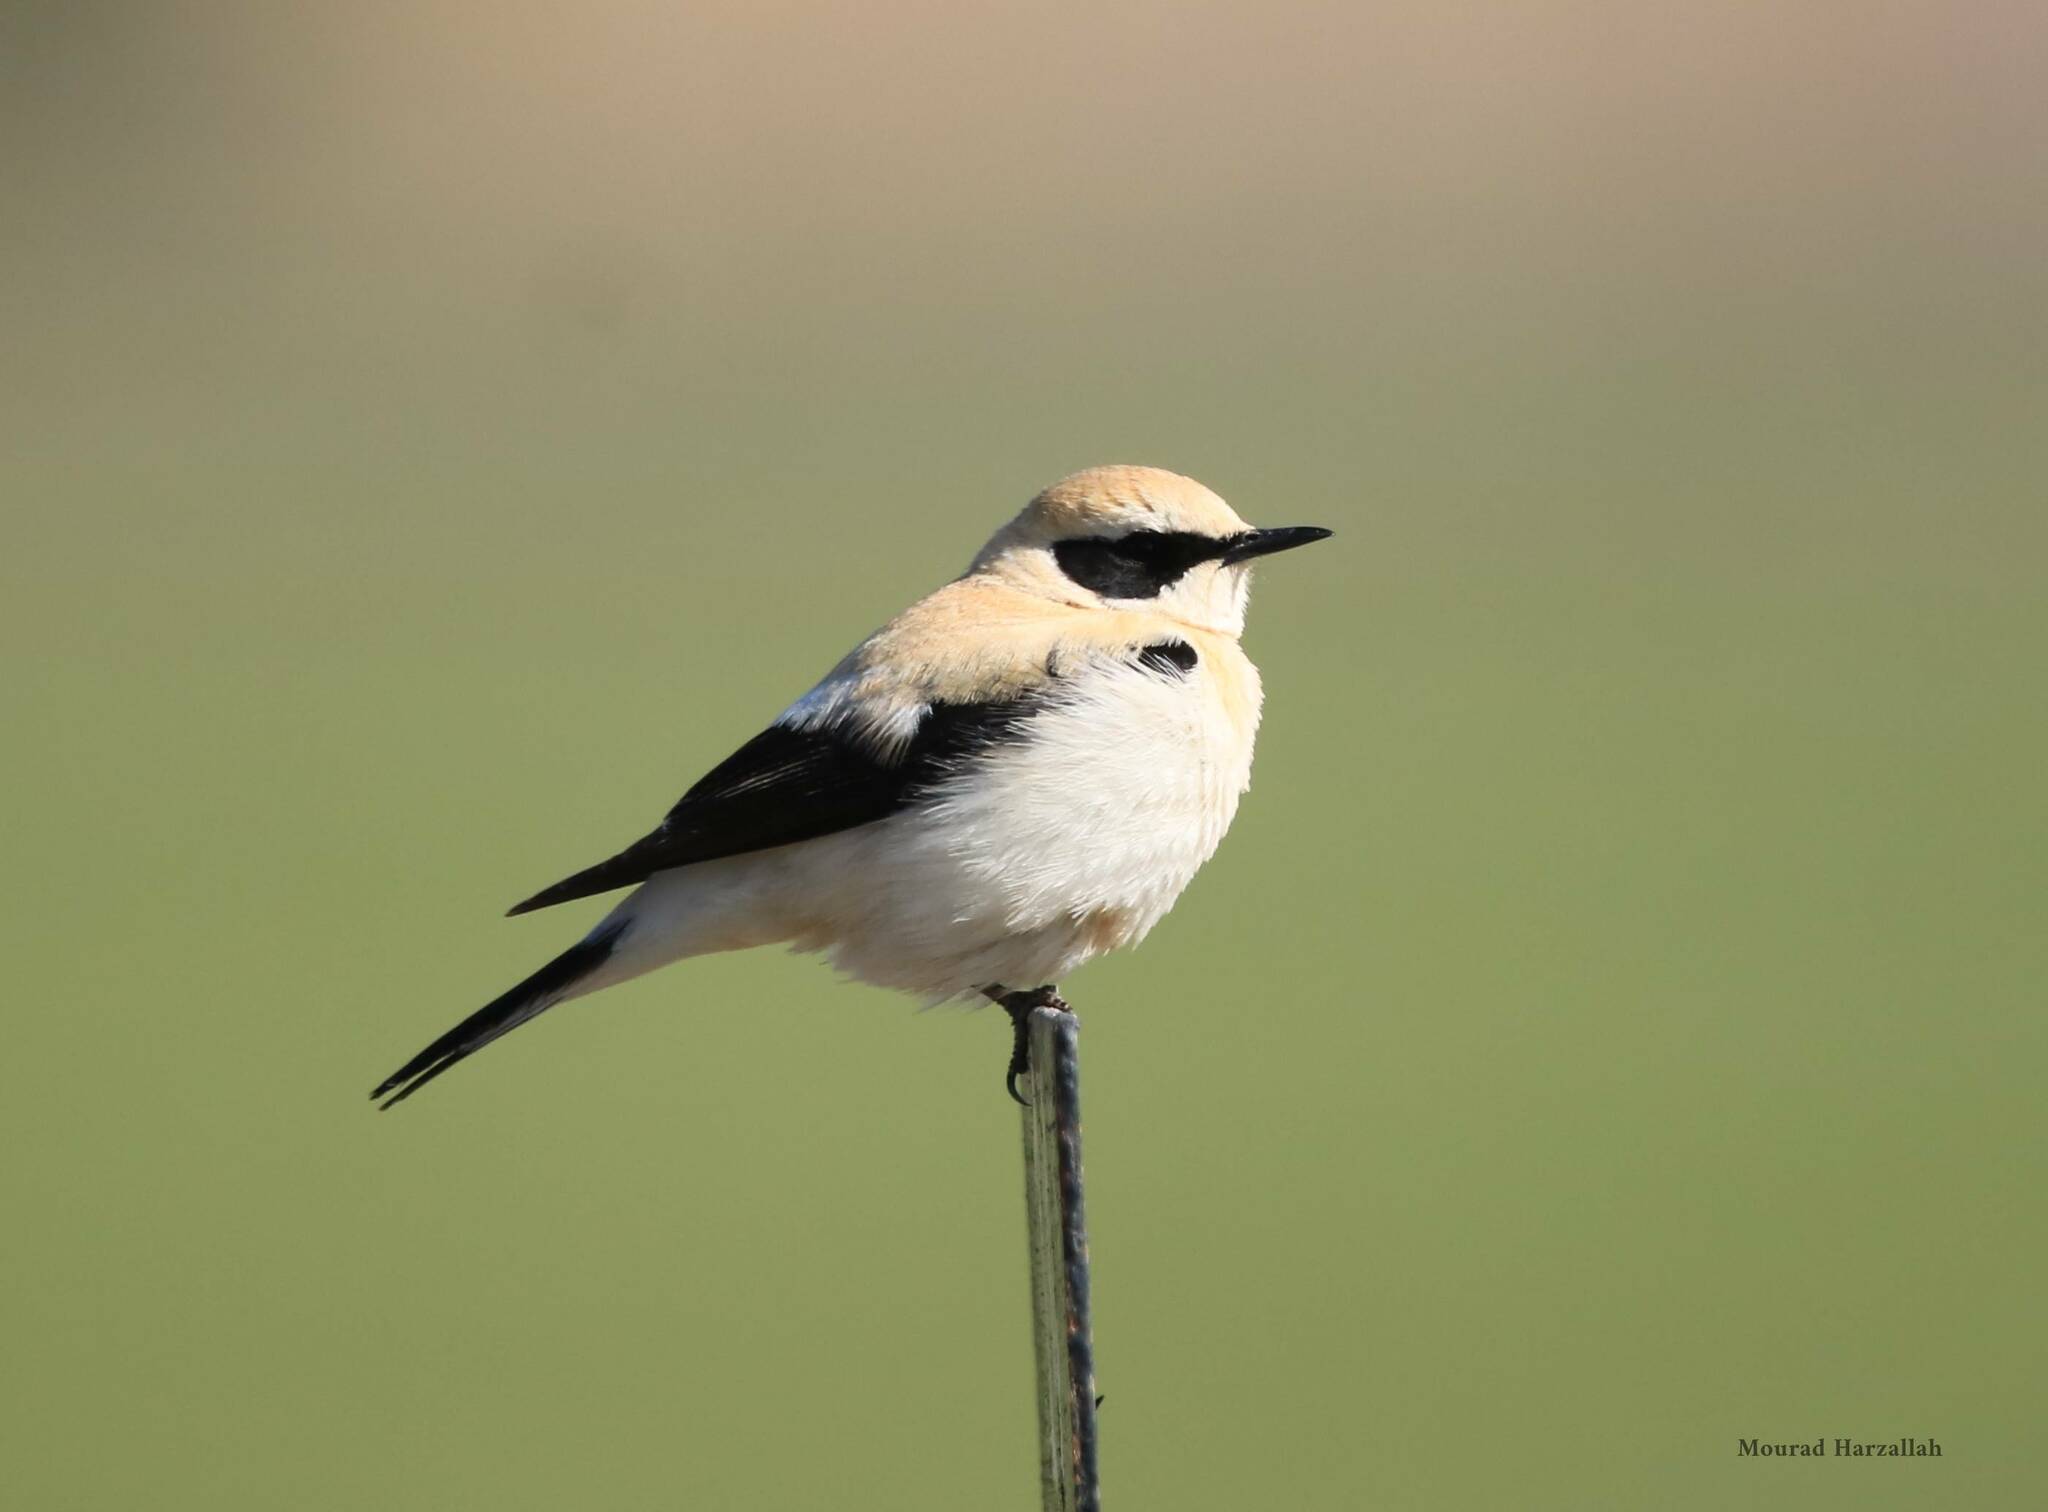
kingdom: Animalia
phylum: Chordata
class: Aves
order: Passeriformes
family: Muscicapidae
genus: Oenanthe
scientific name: Oenanthe hispanica
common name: Black-eared wheatear
